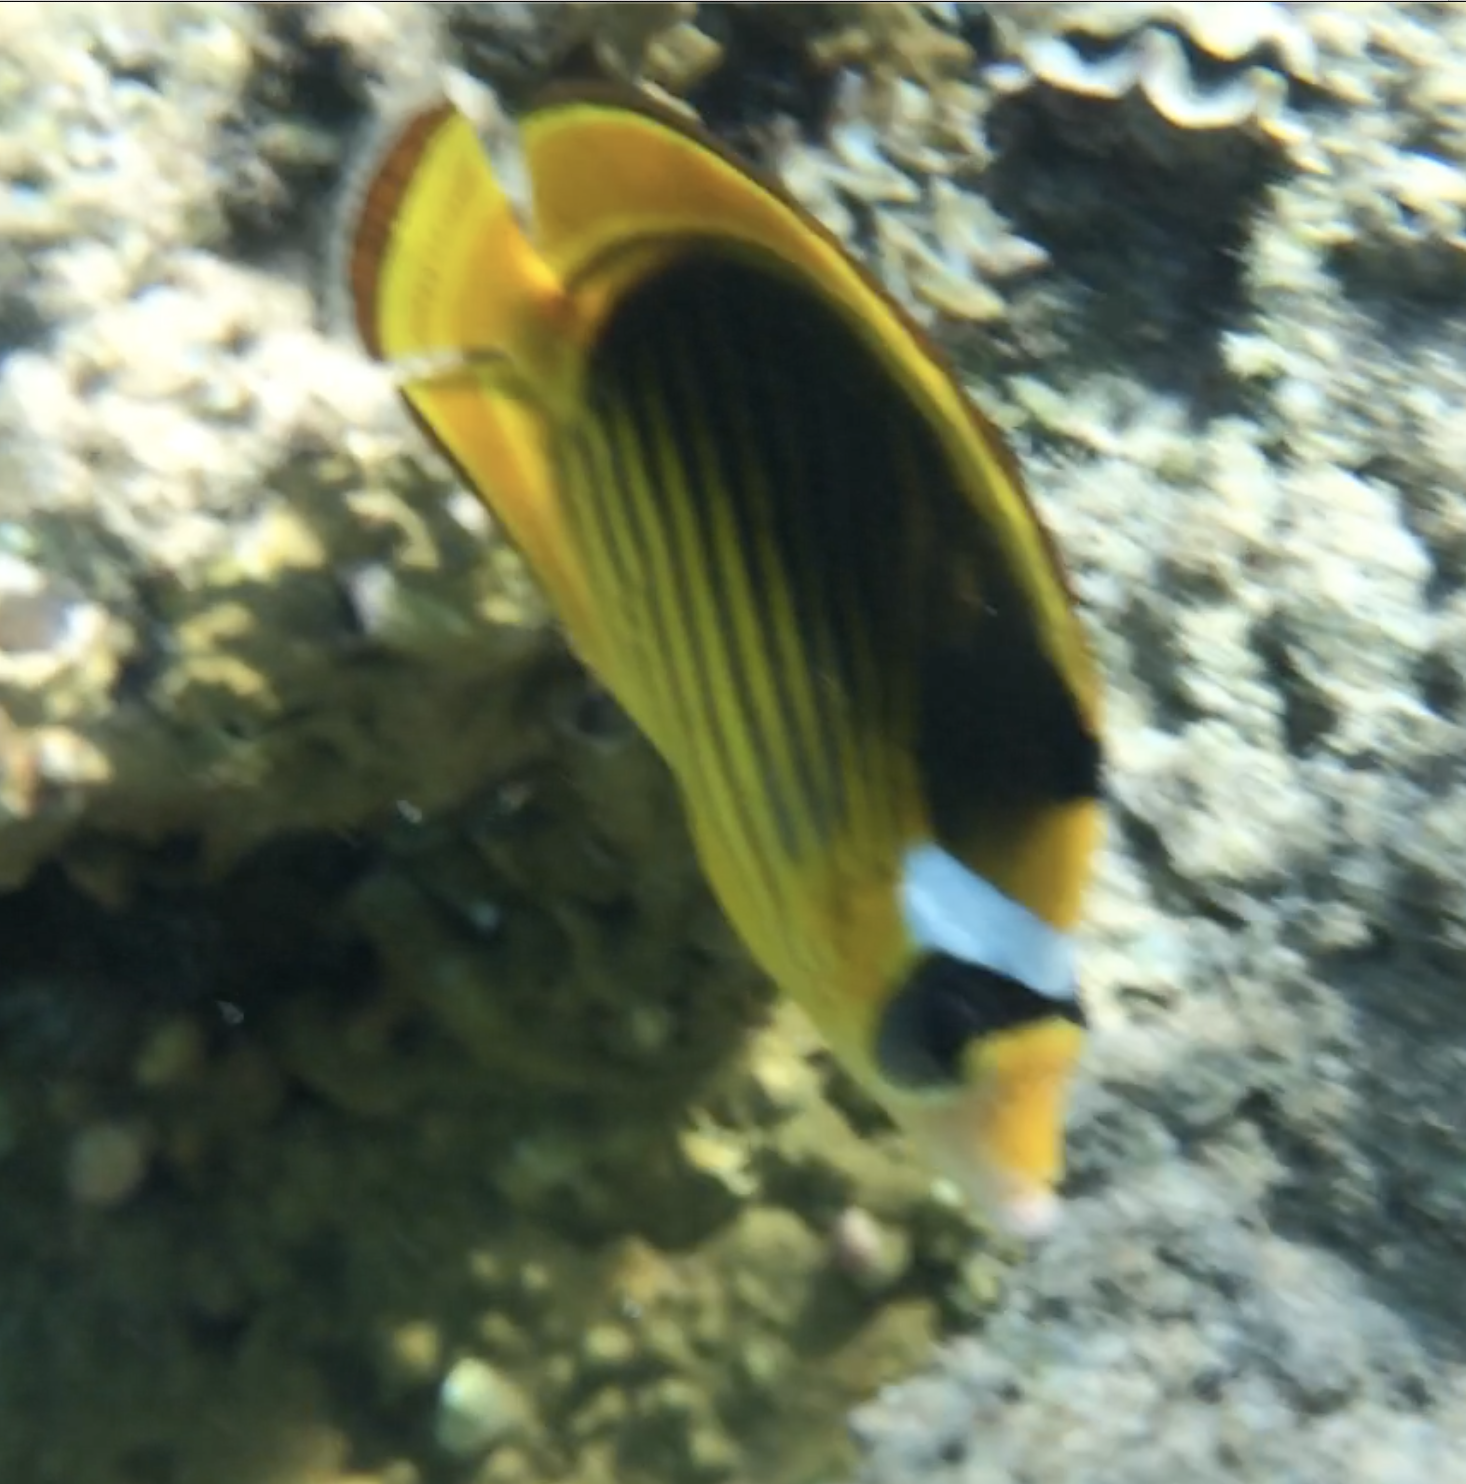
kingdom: Animalia
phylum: Chordata
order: Perciformes
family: Chaetodontidae
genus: Chaetodon
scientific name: Chaetodon fasciatus
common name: Diagonal butterflyfish
